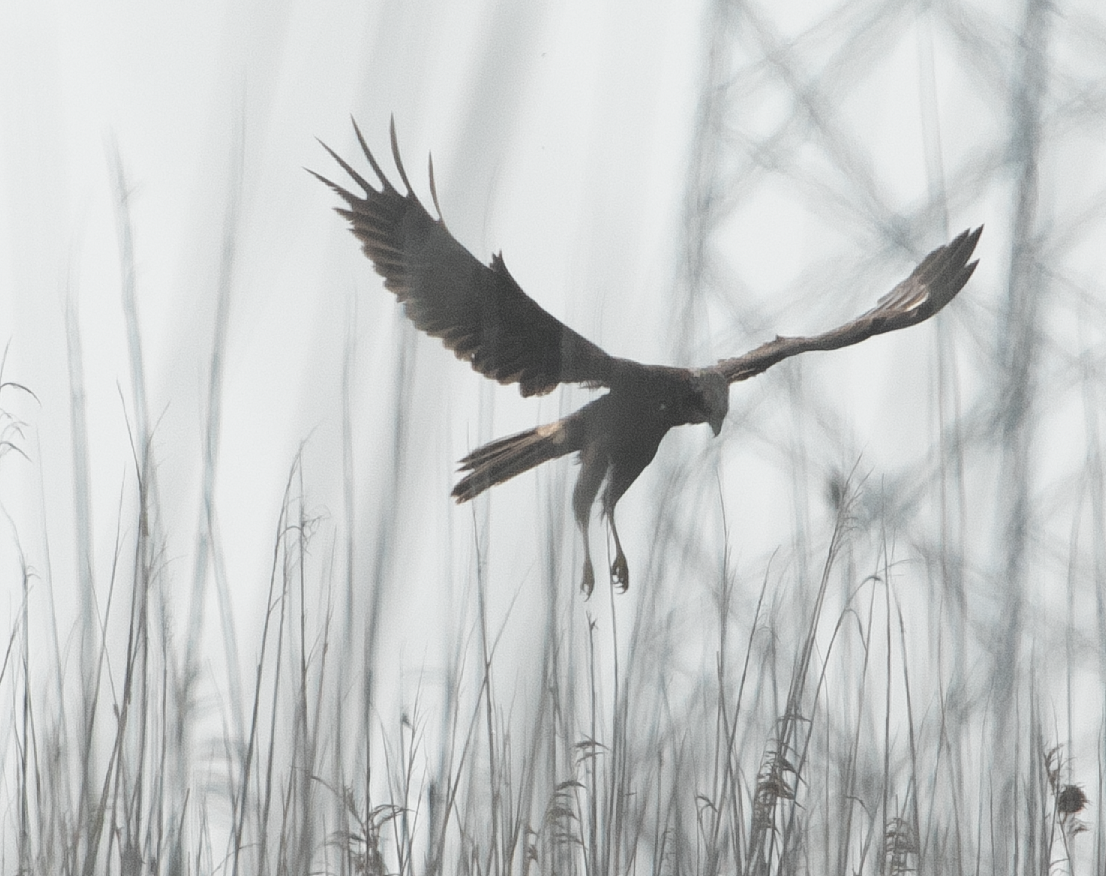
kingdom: Animalia
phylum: Chordata
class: Aves
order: Accipitriformes
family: Accipitridae
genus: Circus
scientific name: Circus aeruginosus
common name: Western marsh harrier
